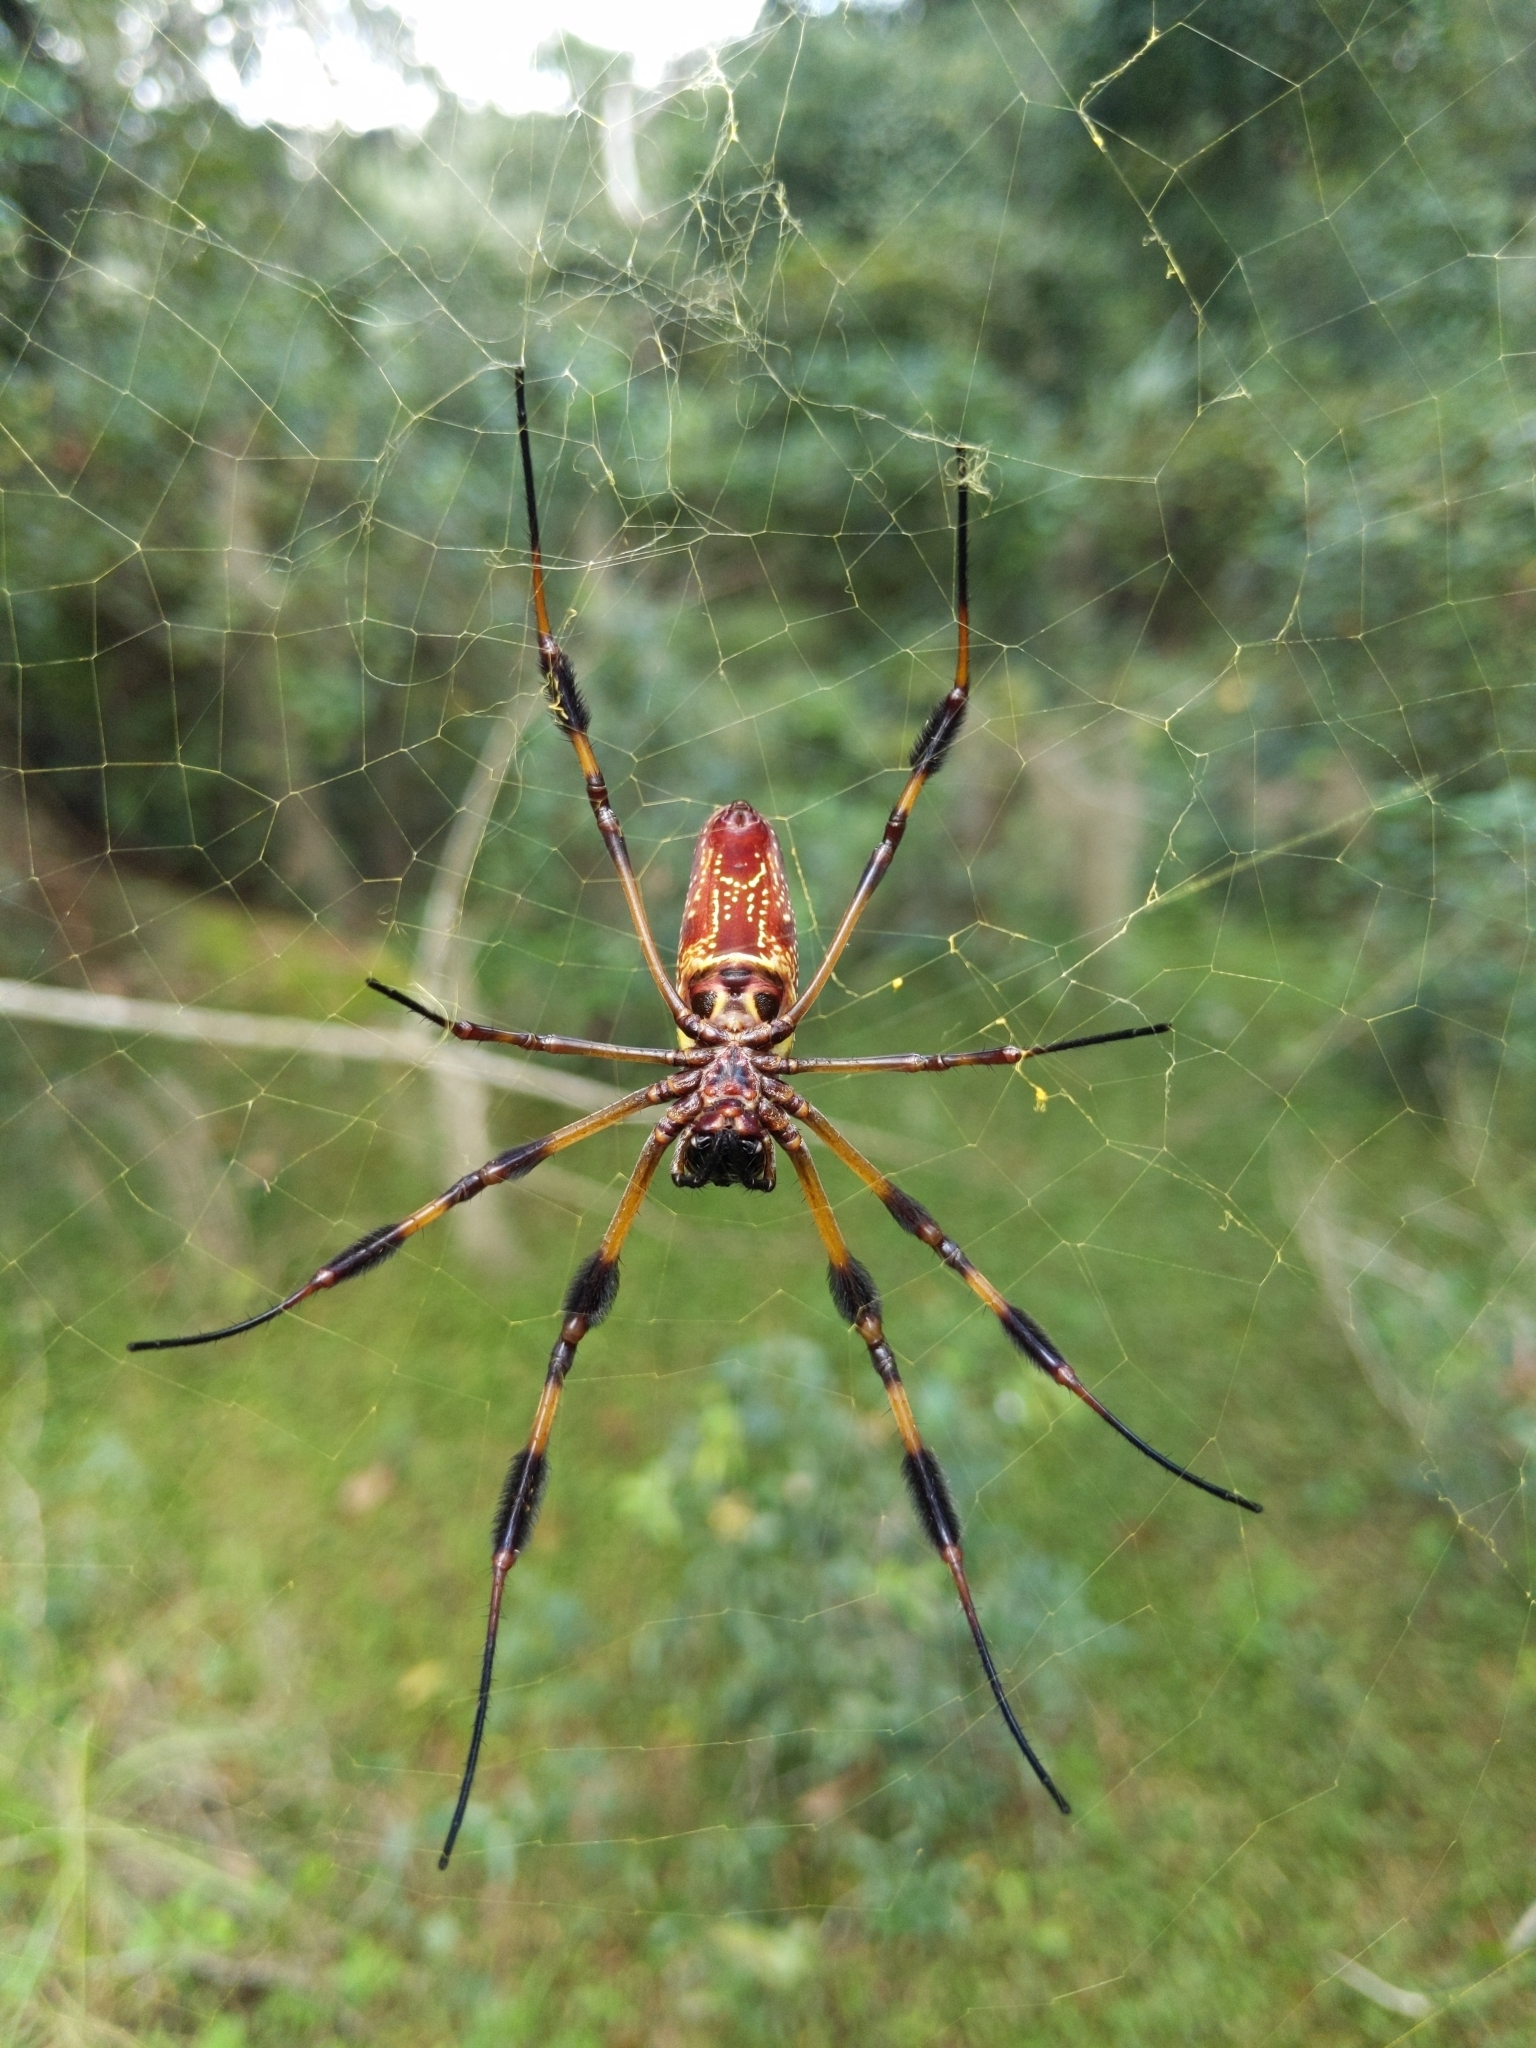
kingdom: Animalia
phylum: Arthropoda
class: Arachnida
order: Araneae
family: Araneidae
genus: Trichonephila
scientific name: Trichonephila clavipes
